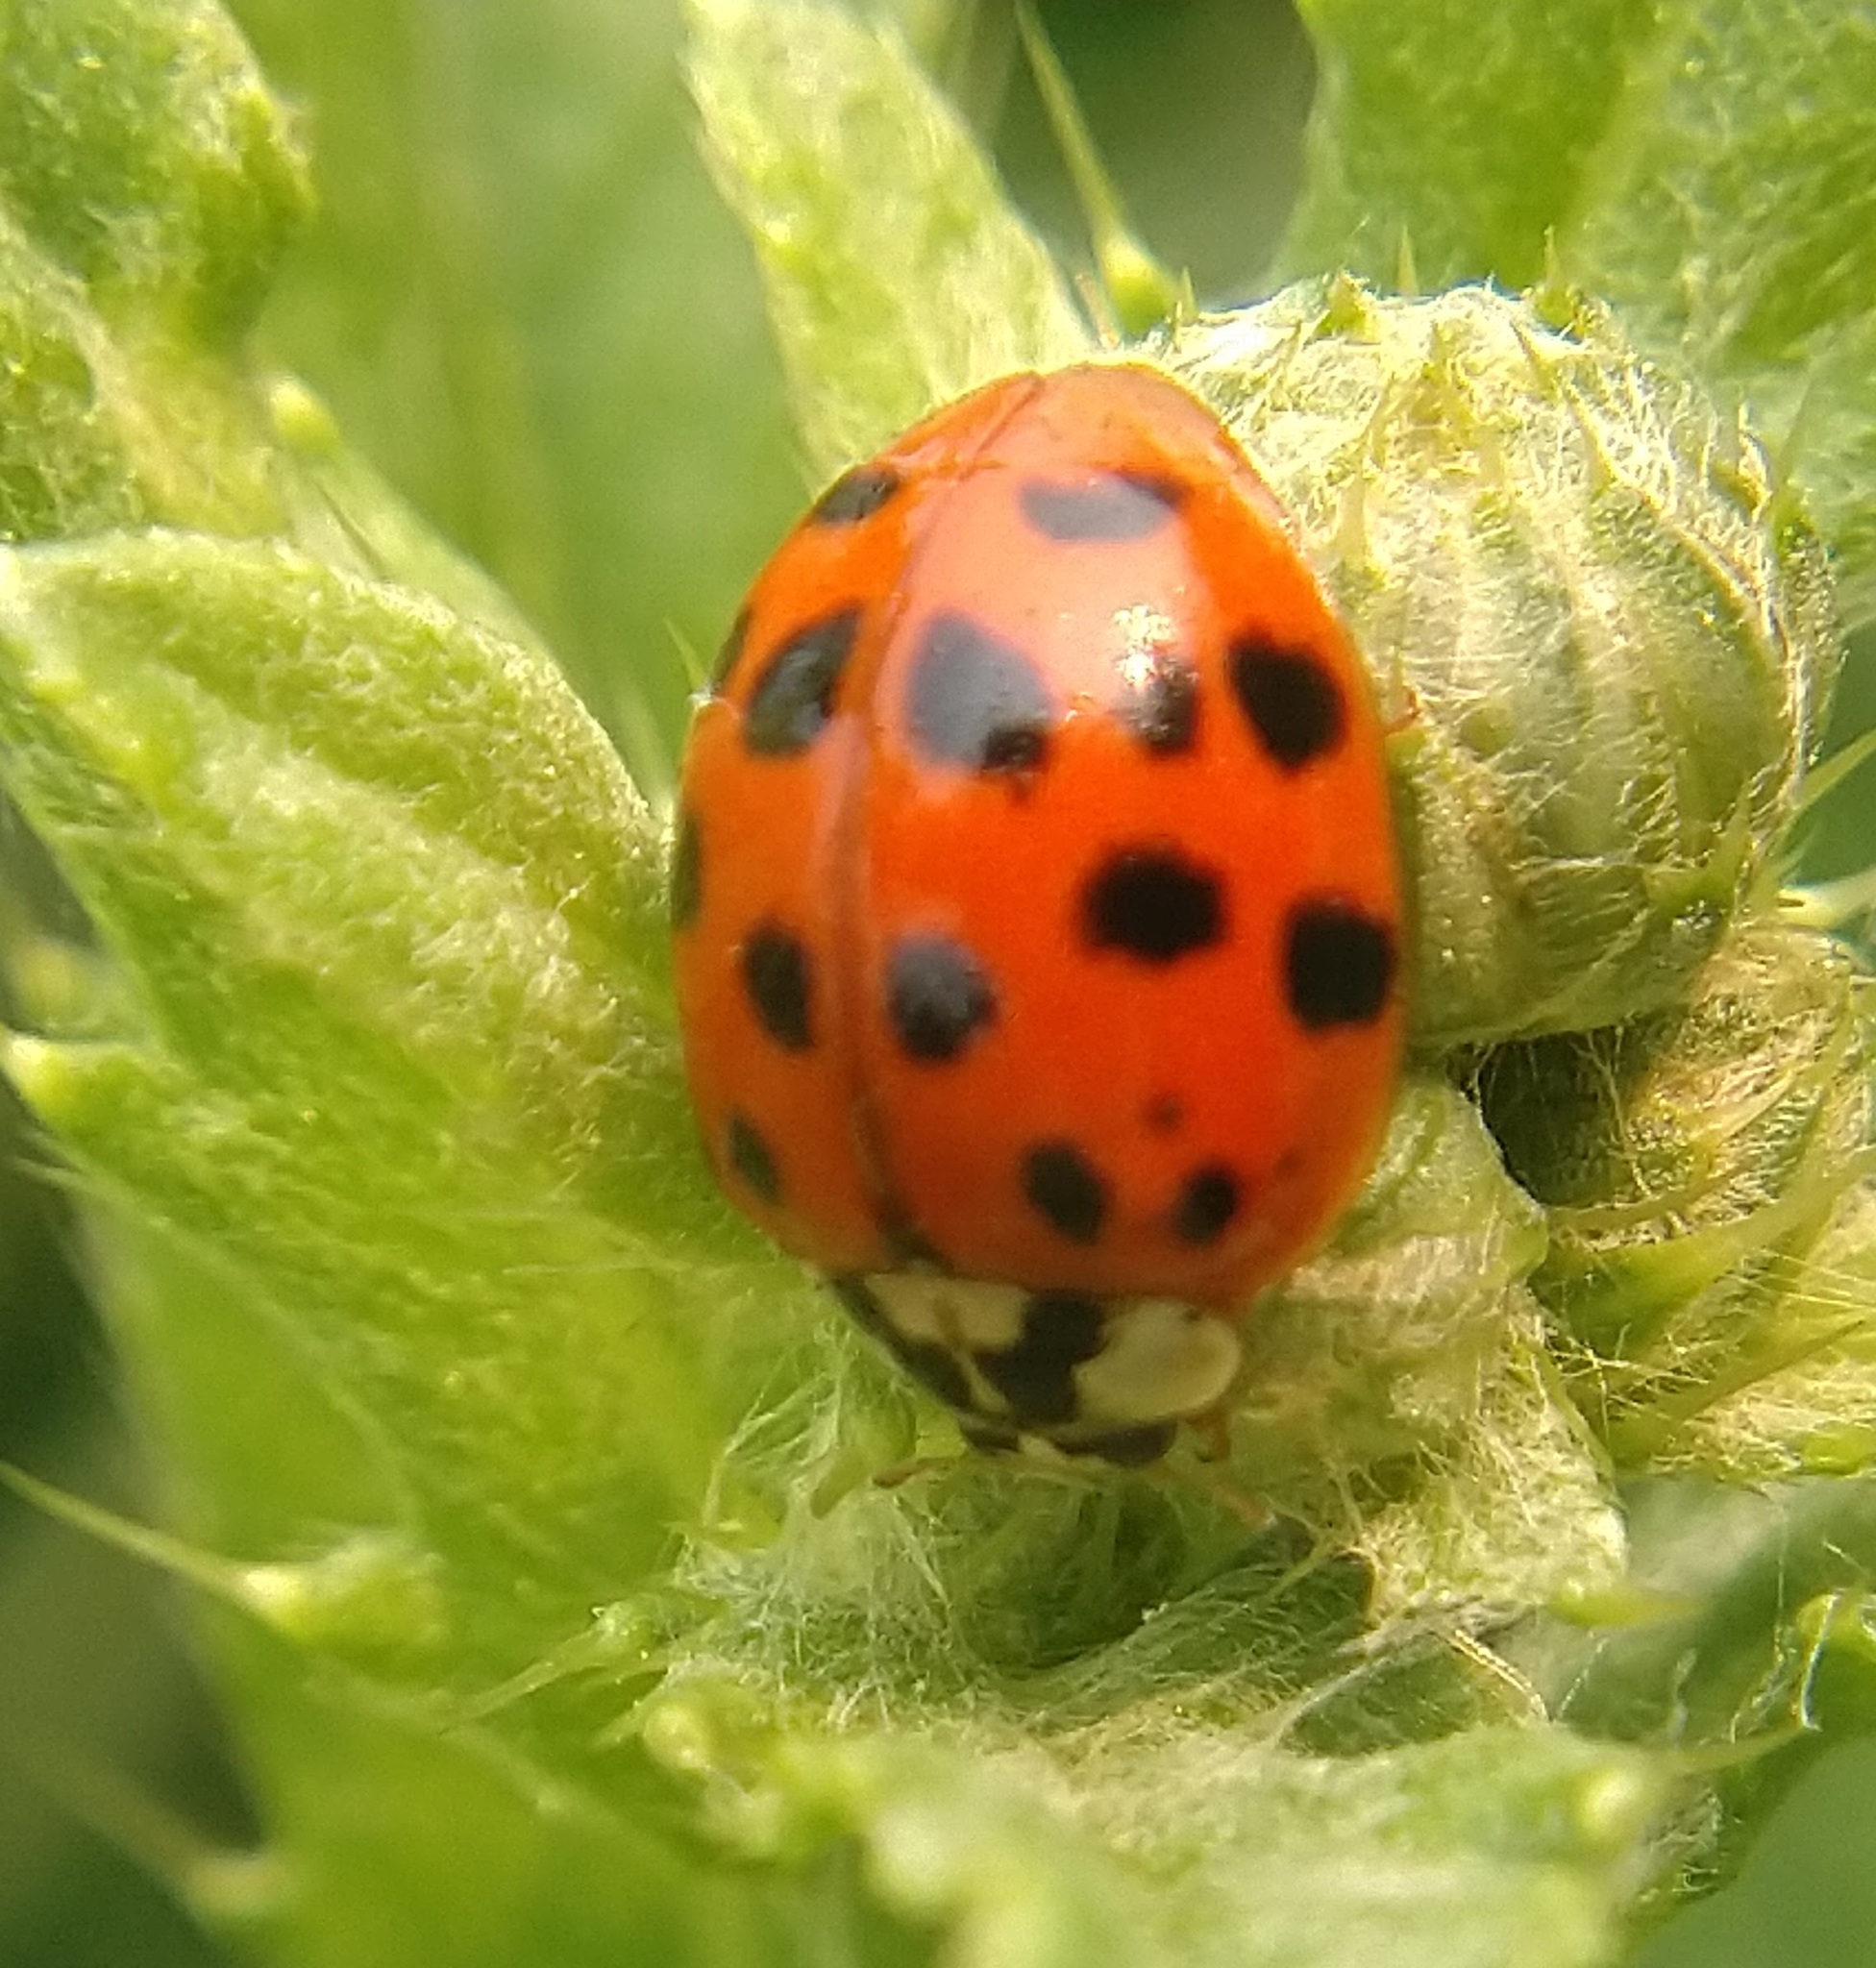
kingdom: Animalia
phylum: Arthropoda
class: Insecta
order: Coleoptera
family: Coccinellidae
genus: Harmonia
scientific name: Harmonia axyridis
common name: Harlequin ladybird
